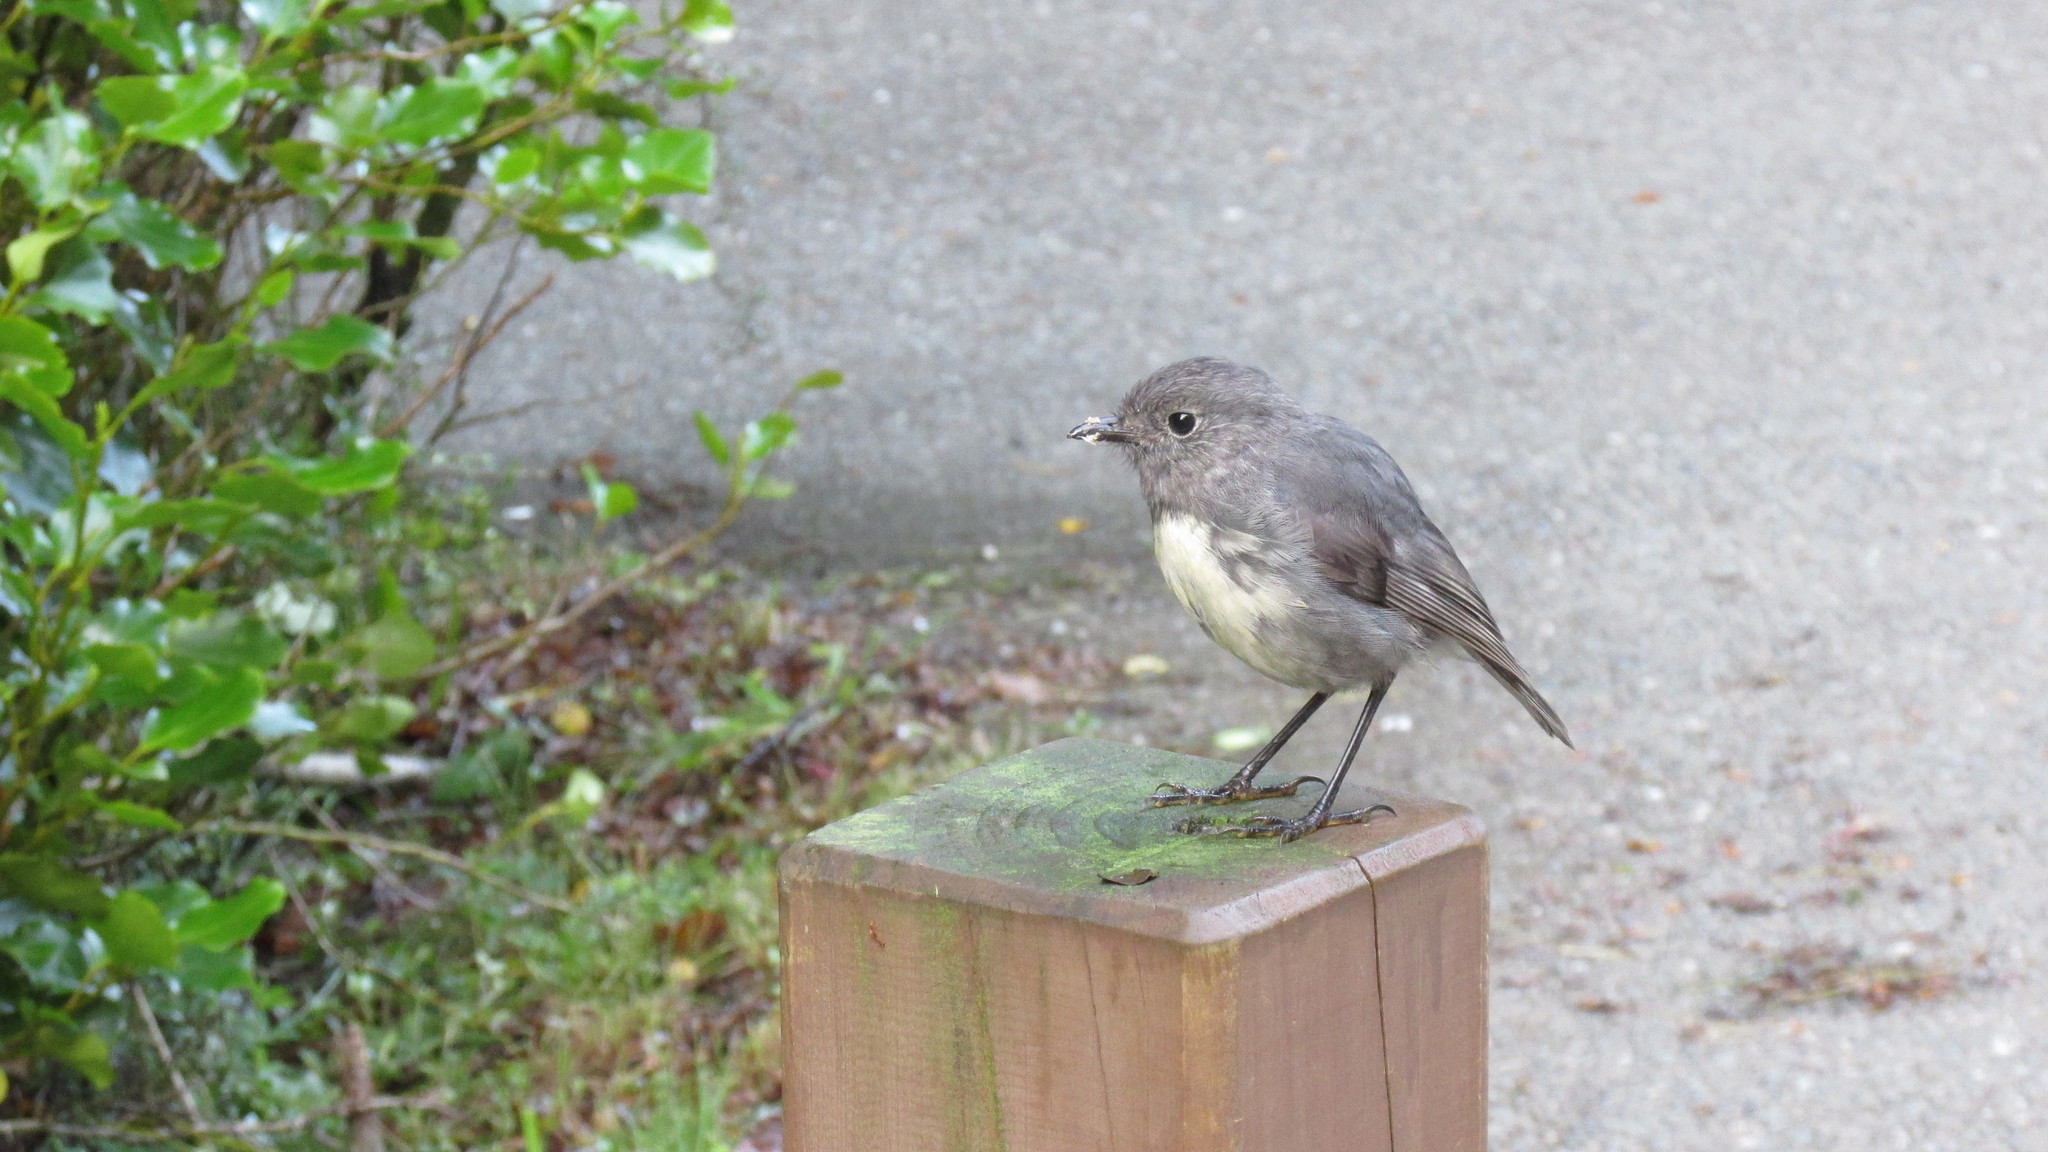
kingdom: Animalia
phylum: Chordata
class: Aves
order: Passeriformes
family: Petroicidae
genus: Petroica
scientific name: Petroica australis
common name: New zealand robin
